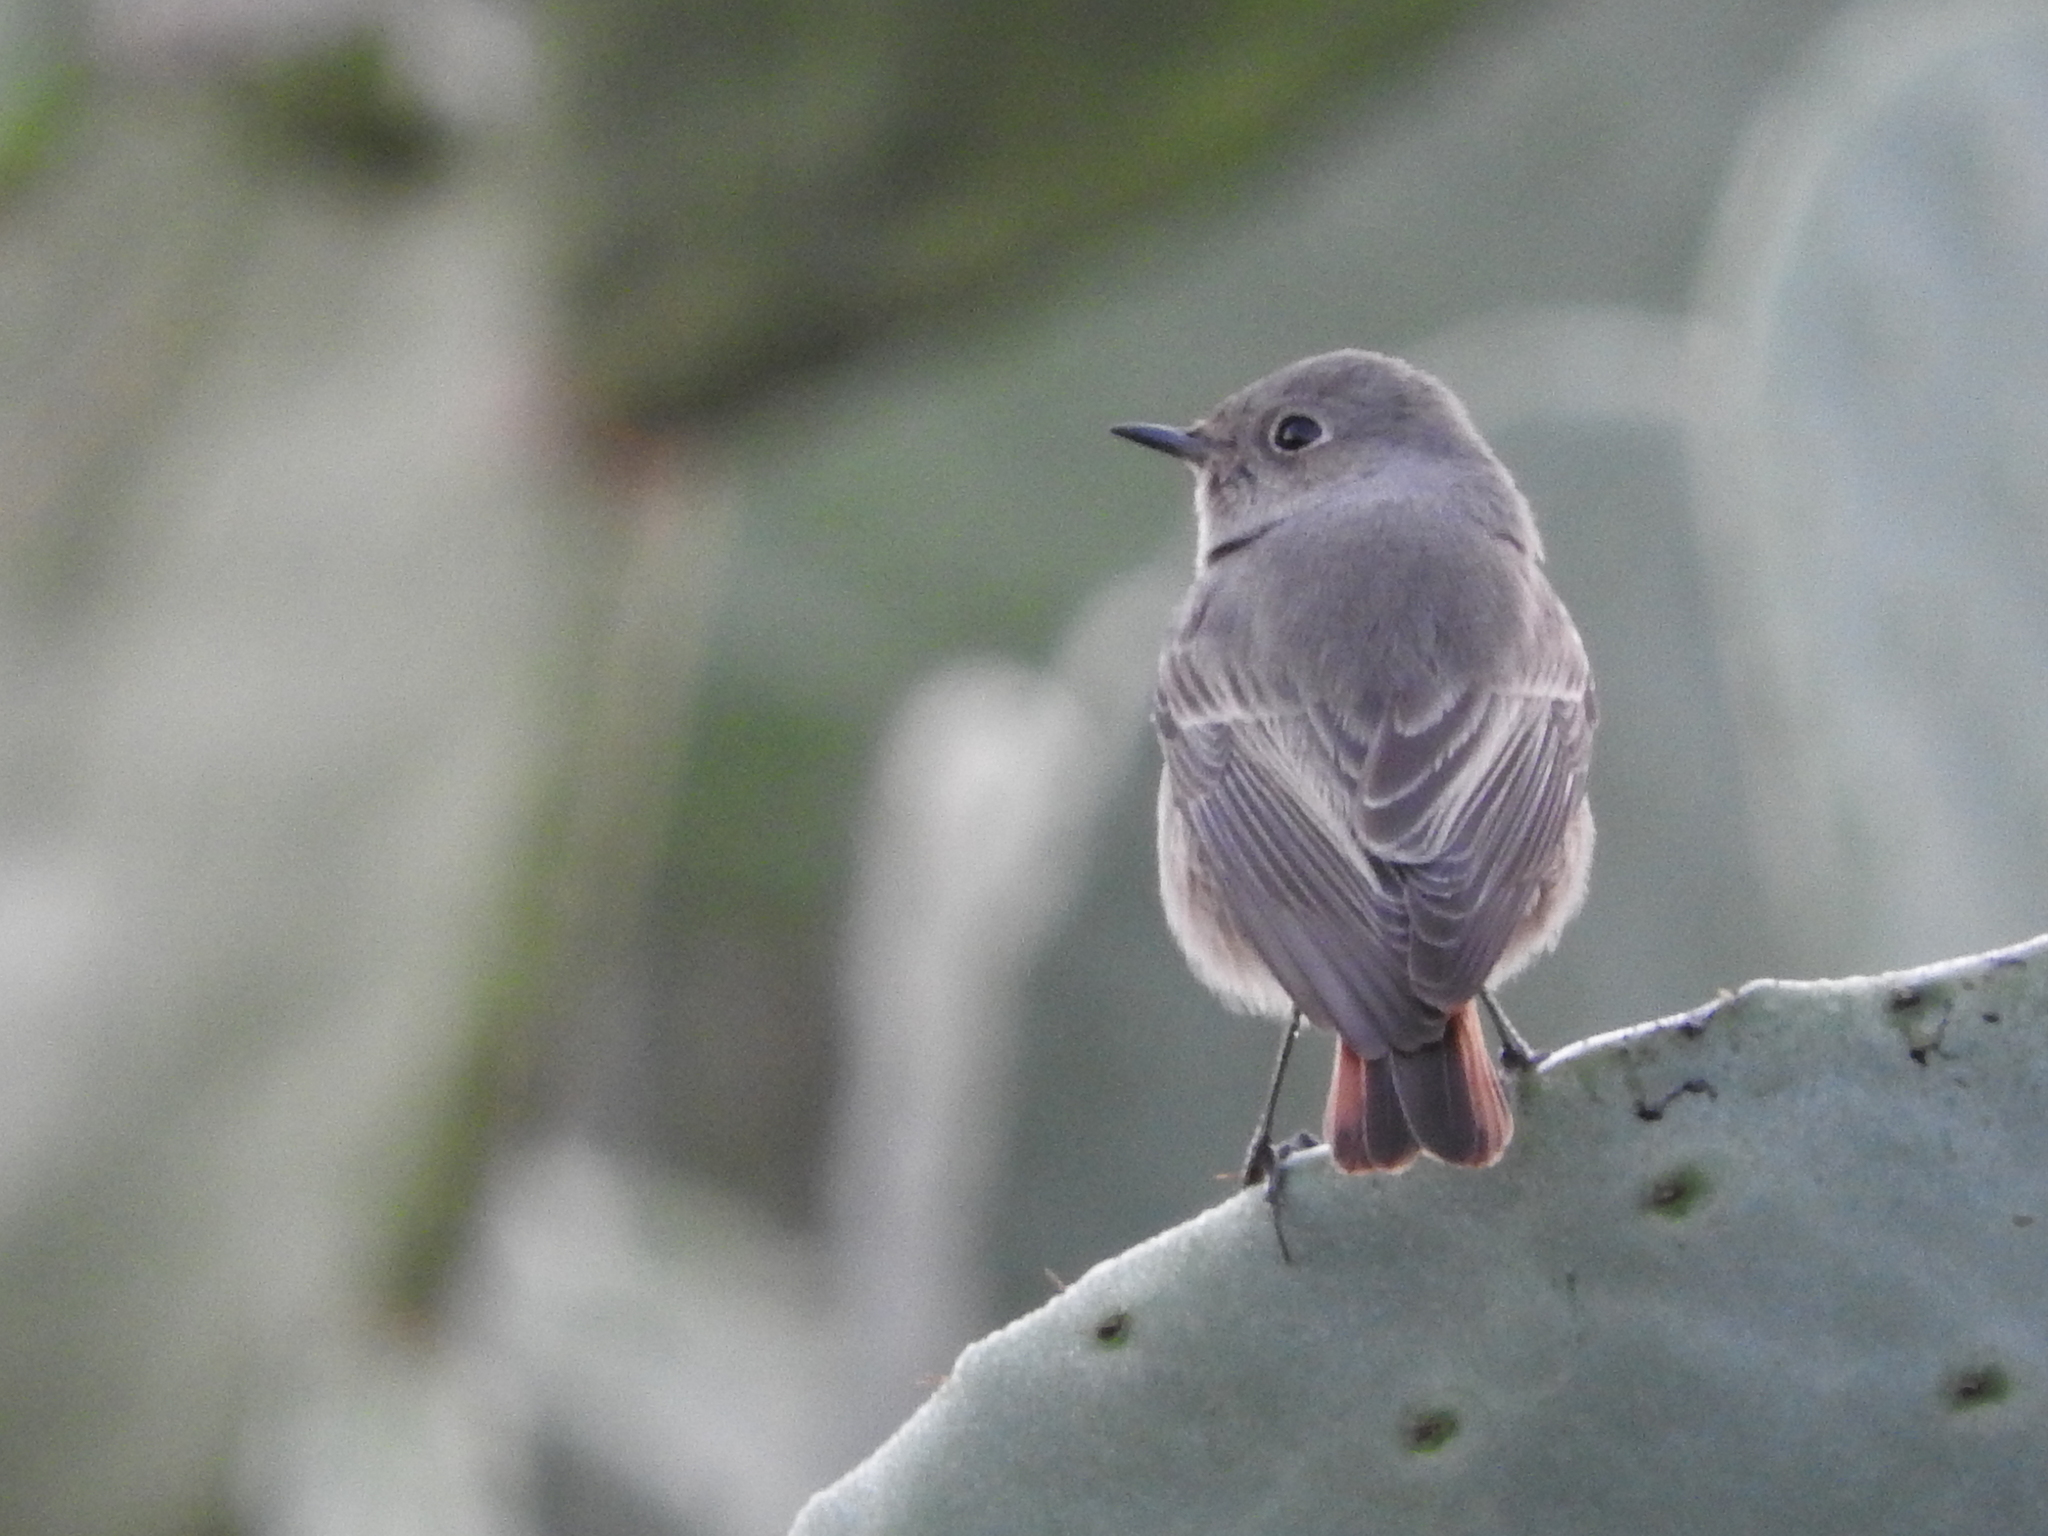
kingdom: Animalia
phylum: Chordata
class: Aves
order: Passeriformes
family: Muscicapidae
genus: Phoenicurus
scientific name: Phoenicurus ochruros
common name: Black redstart
